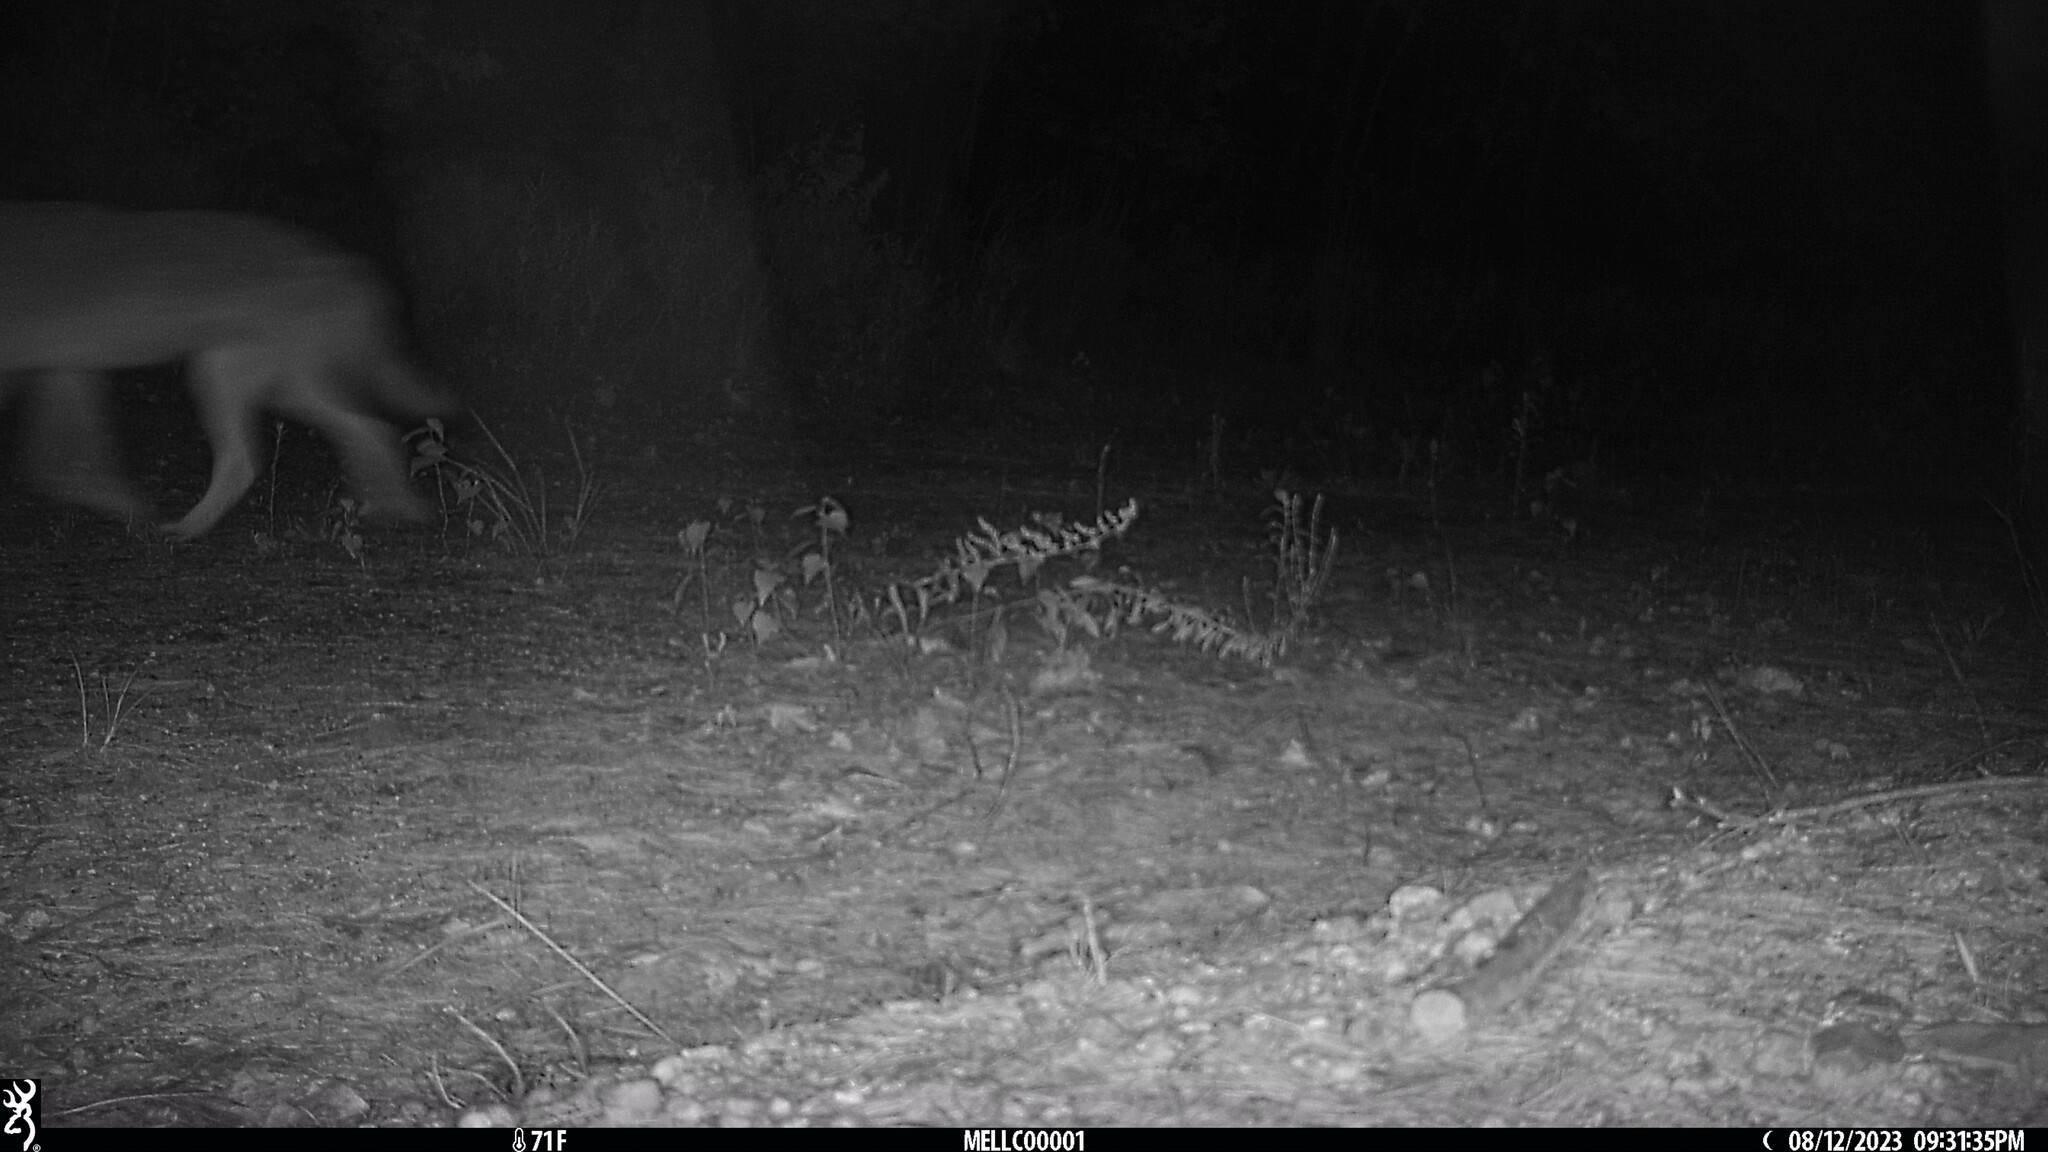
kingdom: Animalia
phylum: Chordata
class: Mammalia
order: Carnivora
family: Canidae
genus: Canis
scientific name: Canis latrans
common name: Coyote
